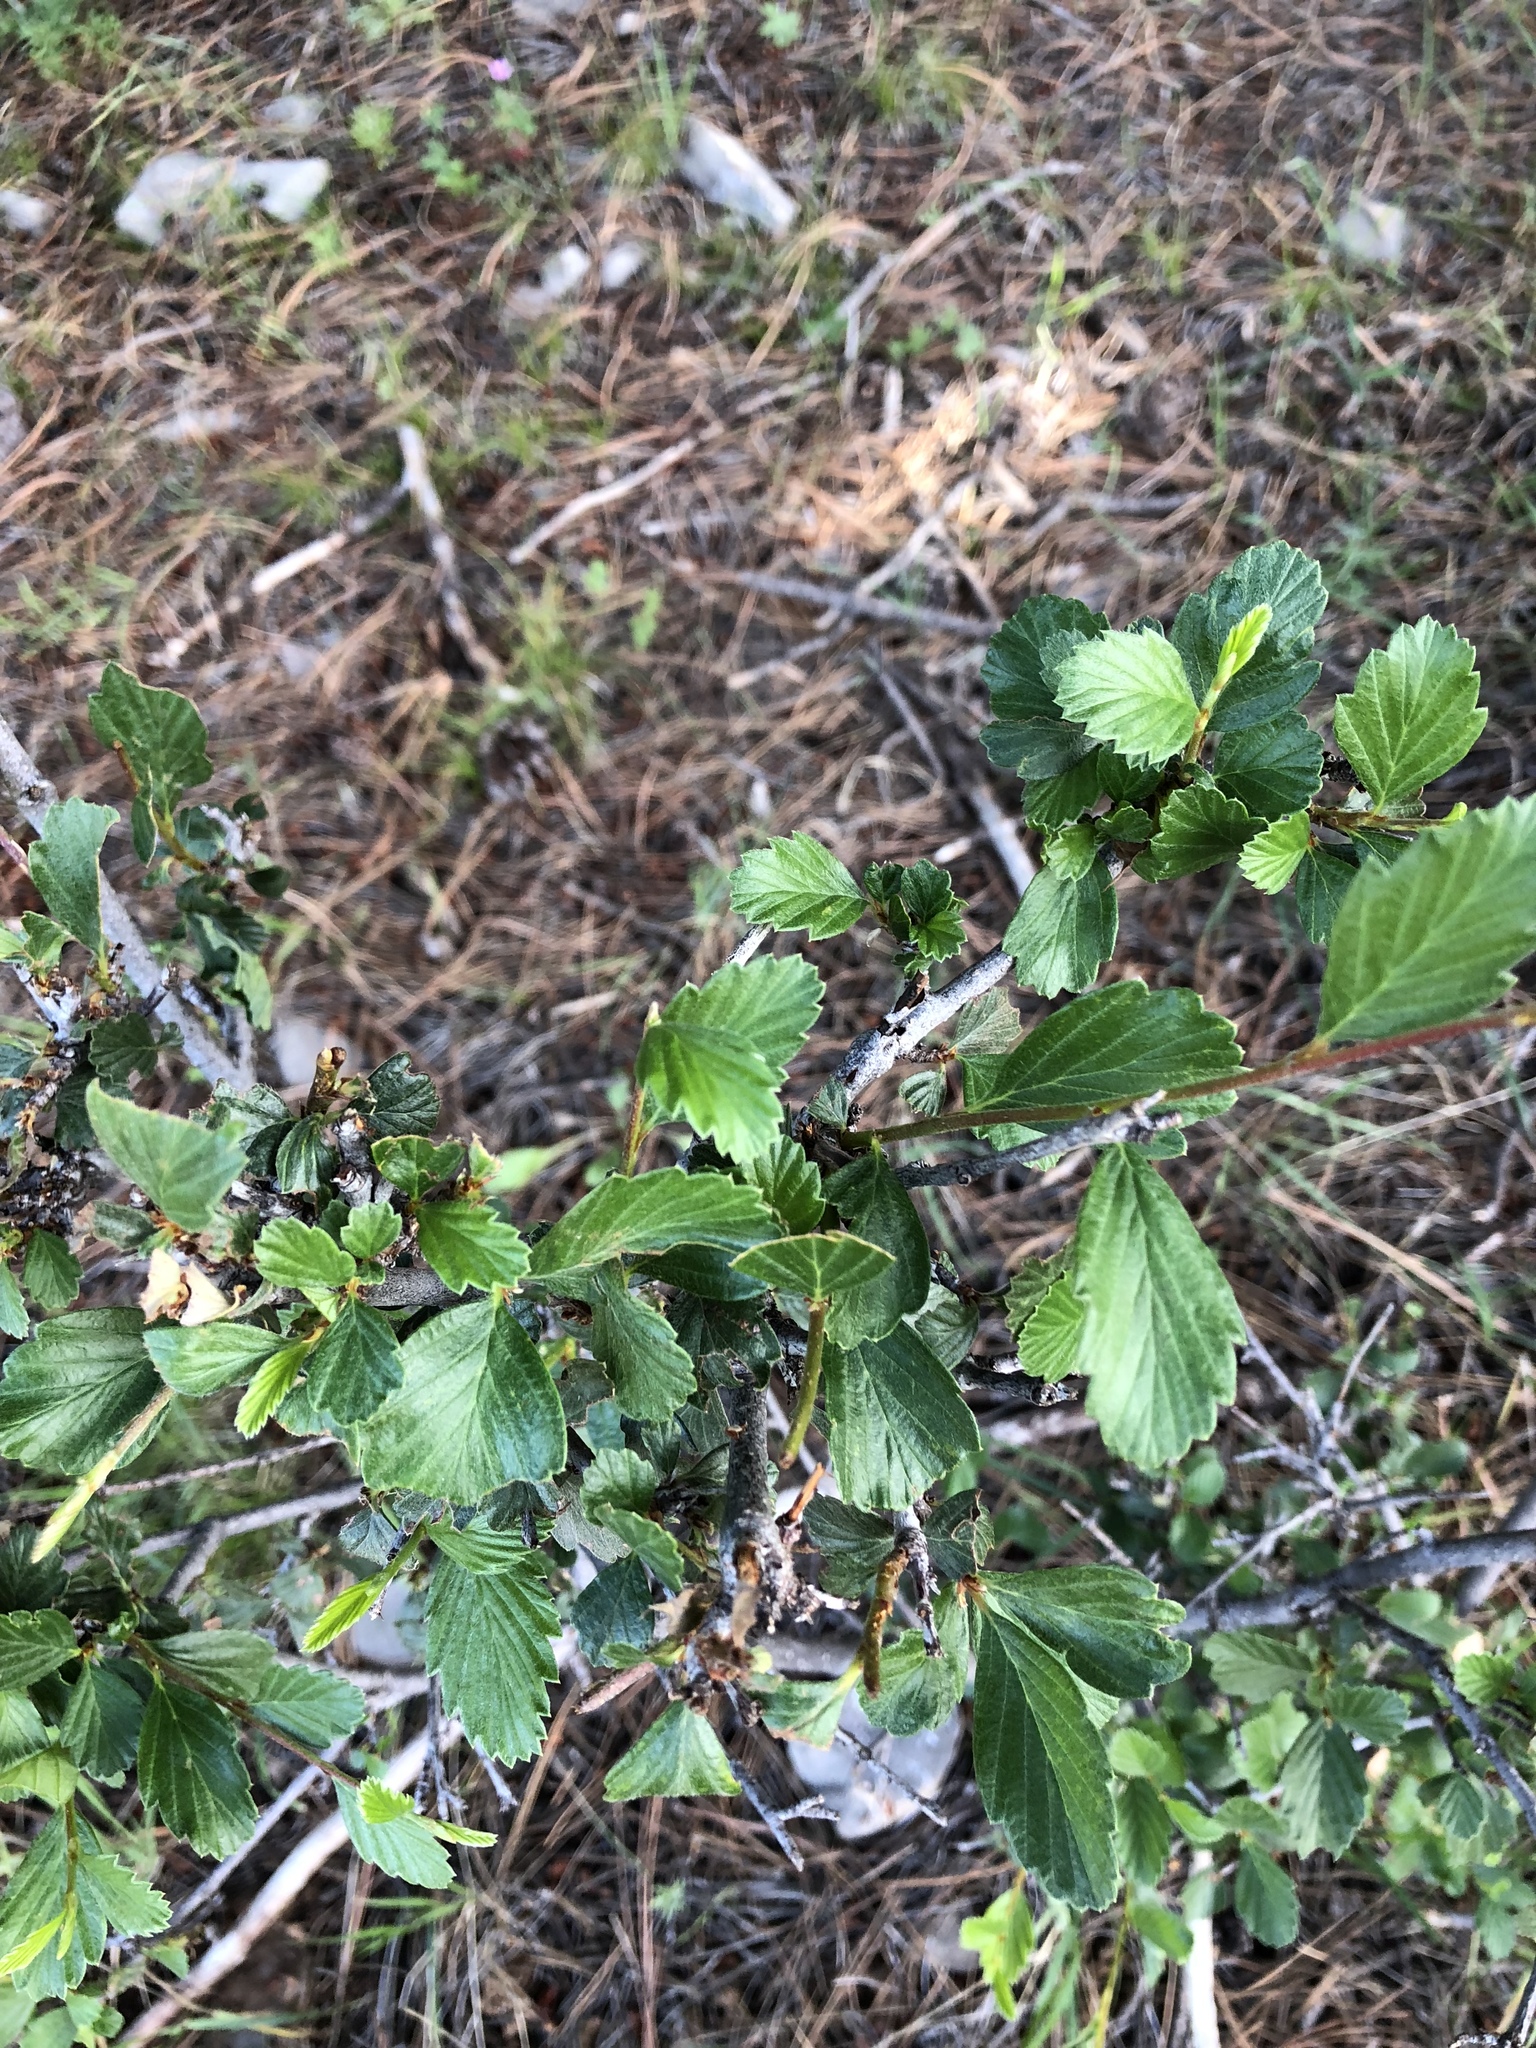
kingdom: Plantae
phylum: Tracheophyta
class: Magnoliopsida
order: Rosales
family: Rosaceae
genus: Cercocarpus
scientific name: Cercocarpus montanus
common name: Alder-leaf cercocarpus
